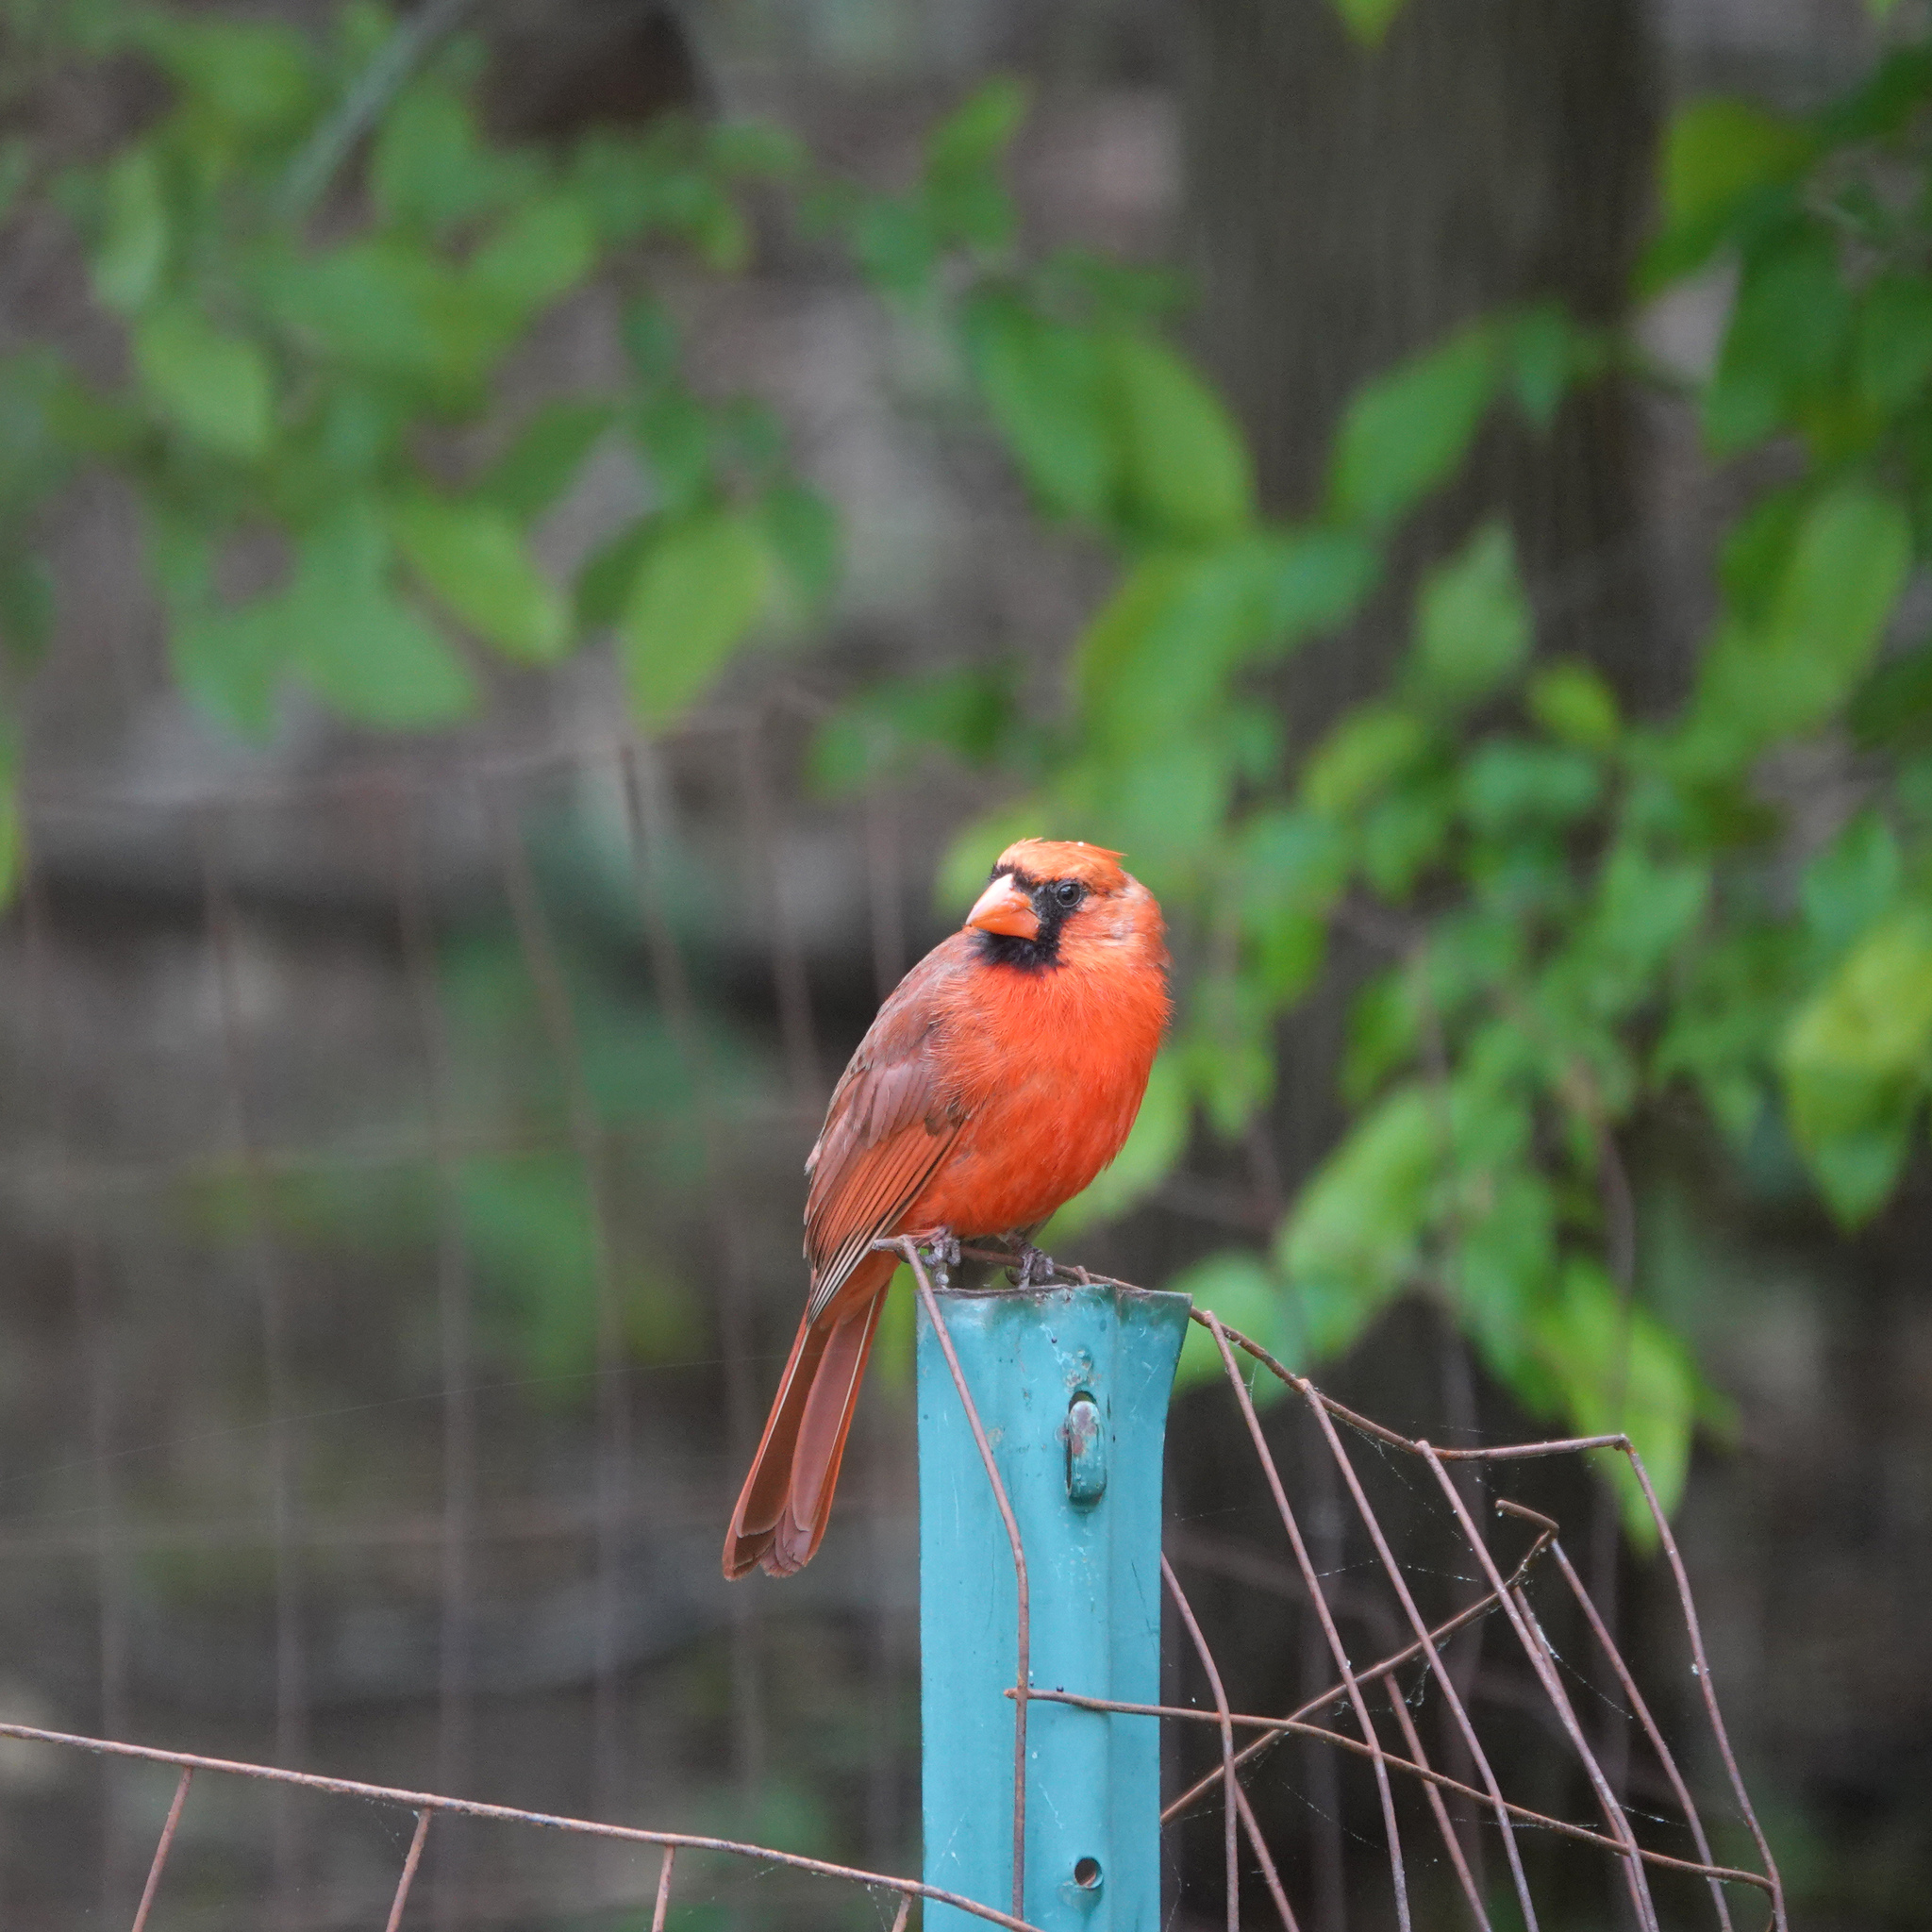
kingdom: Animalia
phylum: Chordata
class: Aves
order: Passeriformes
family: Cardinalidae
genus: Cardinalis
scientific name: Cardinalis cardinalis
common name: Northern cardinal
